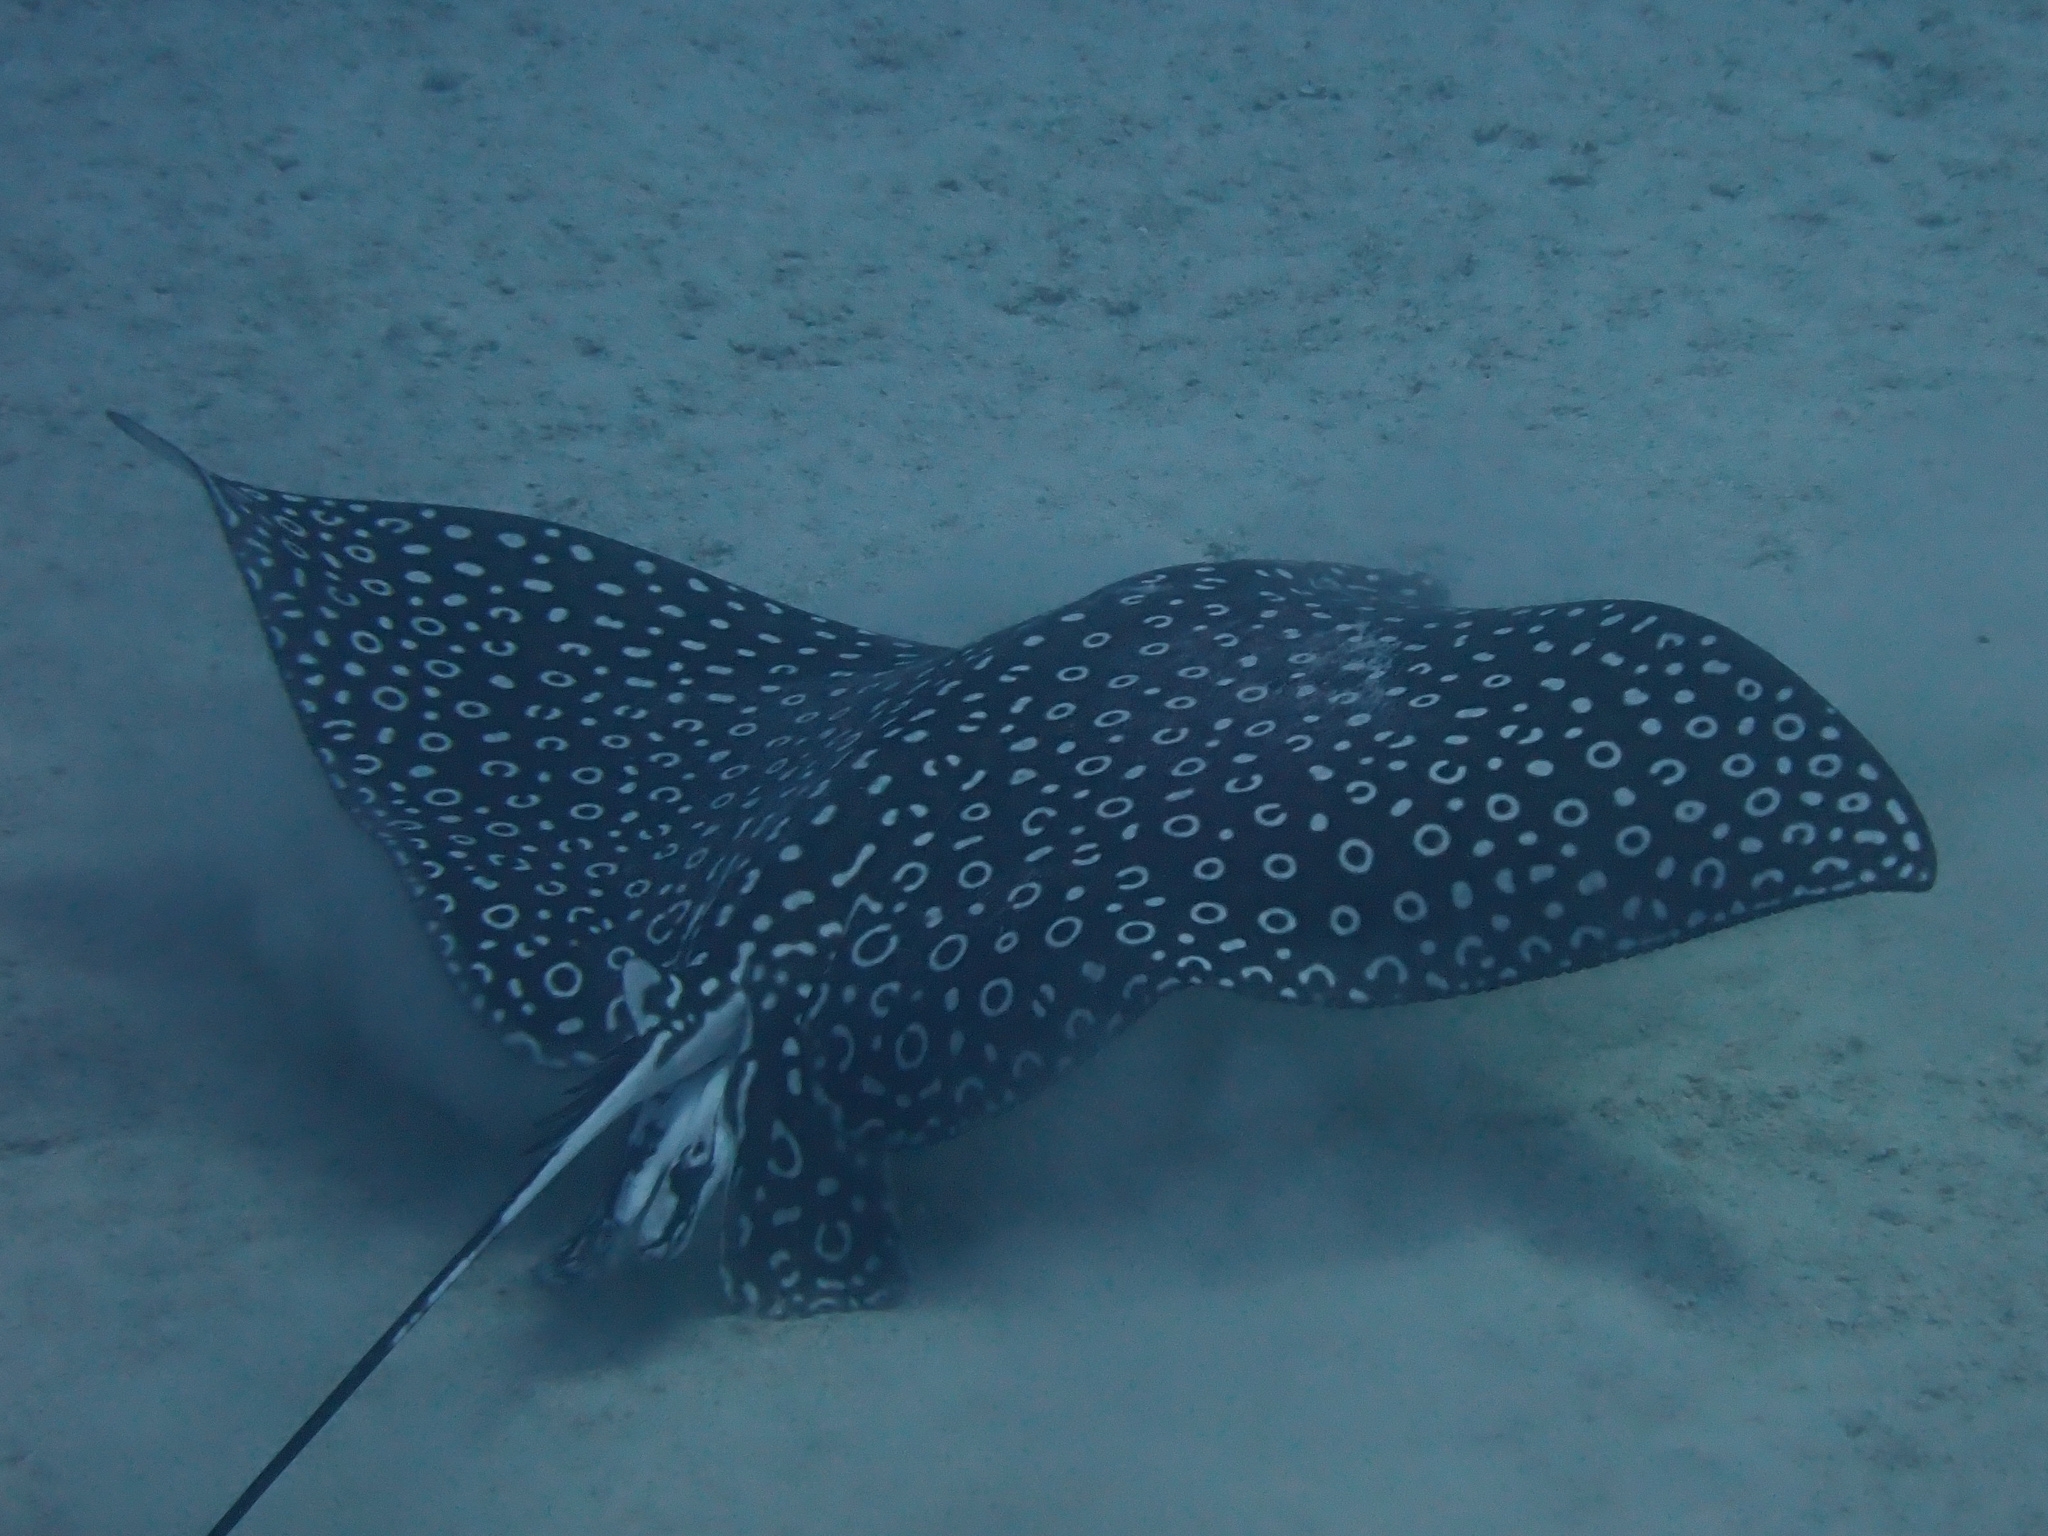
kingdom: Animalia
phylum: Chordata
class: Elasmobranchii
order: Myliobatiformes
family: Myliobatidae
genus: Aetobatus
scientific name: Aetobatus narinari
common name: Spotted eagle ray
